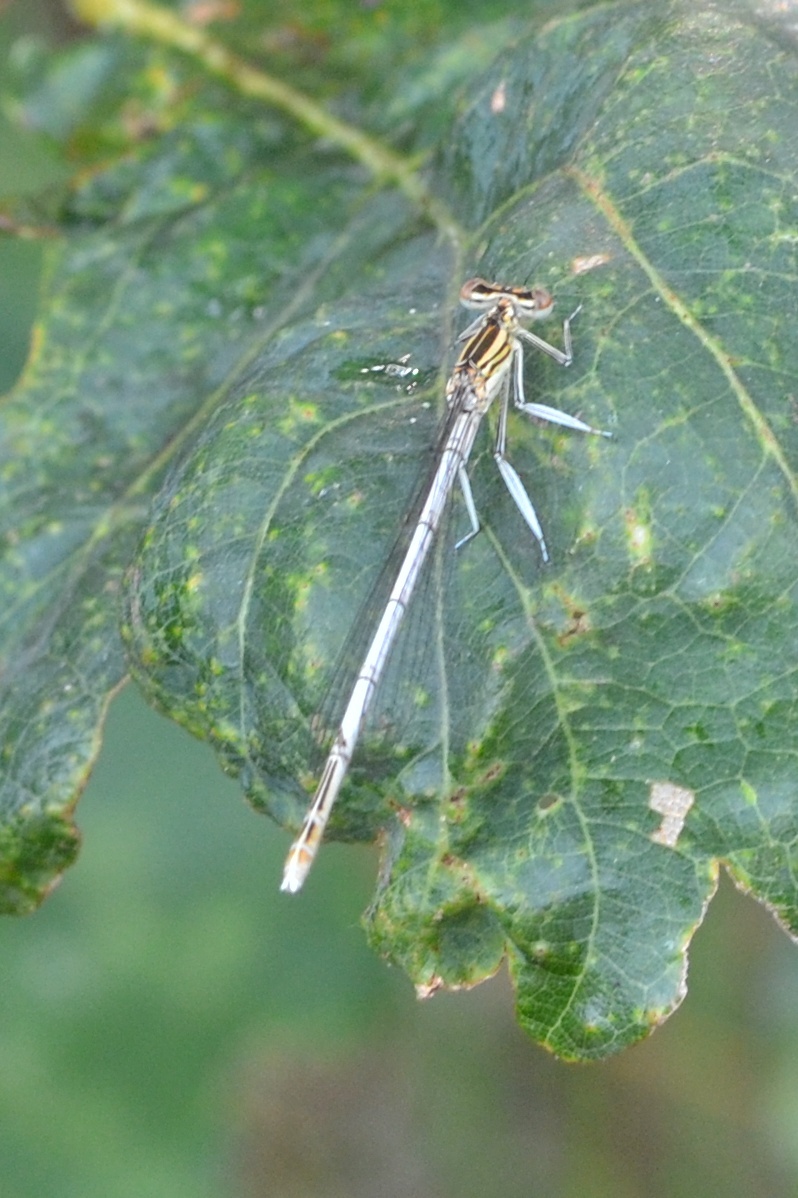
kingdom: Animalia
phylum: Arthropoda
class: Insecta
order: Odonata
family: Platycnemididae
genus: Platycnemis
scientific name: Platycnemis pennipes
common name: White-legged damselfly
